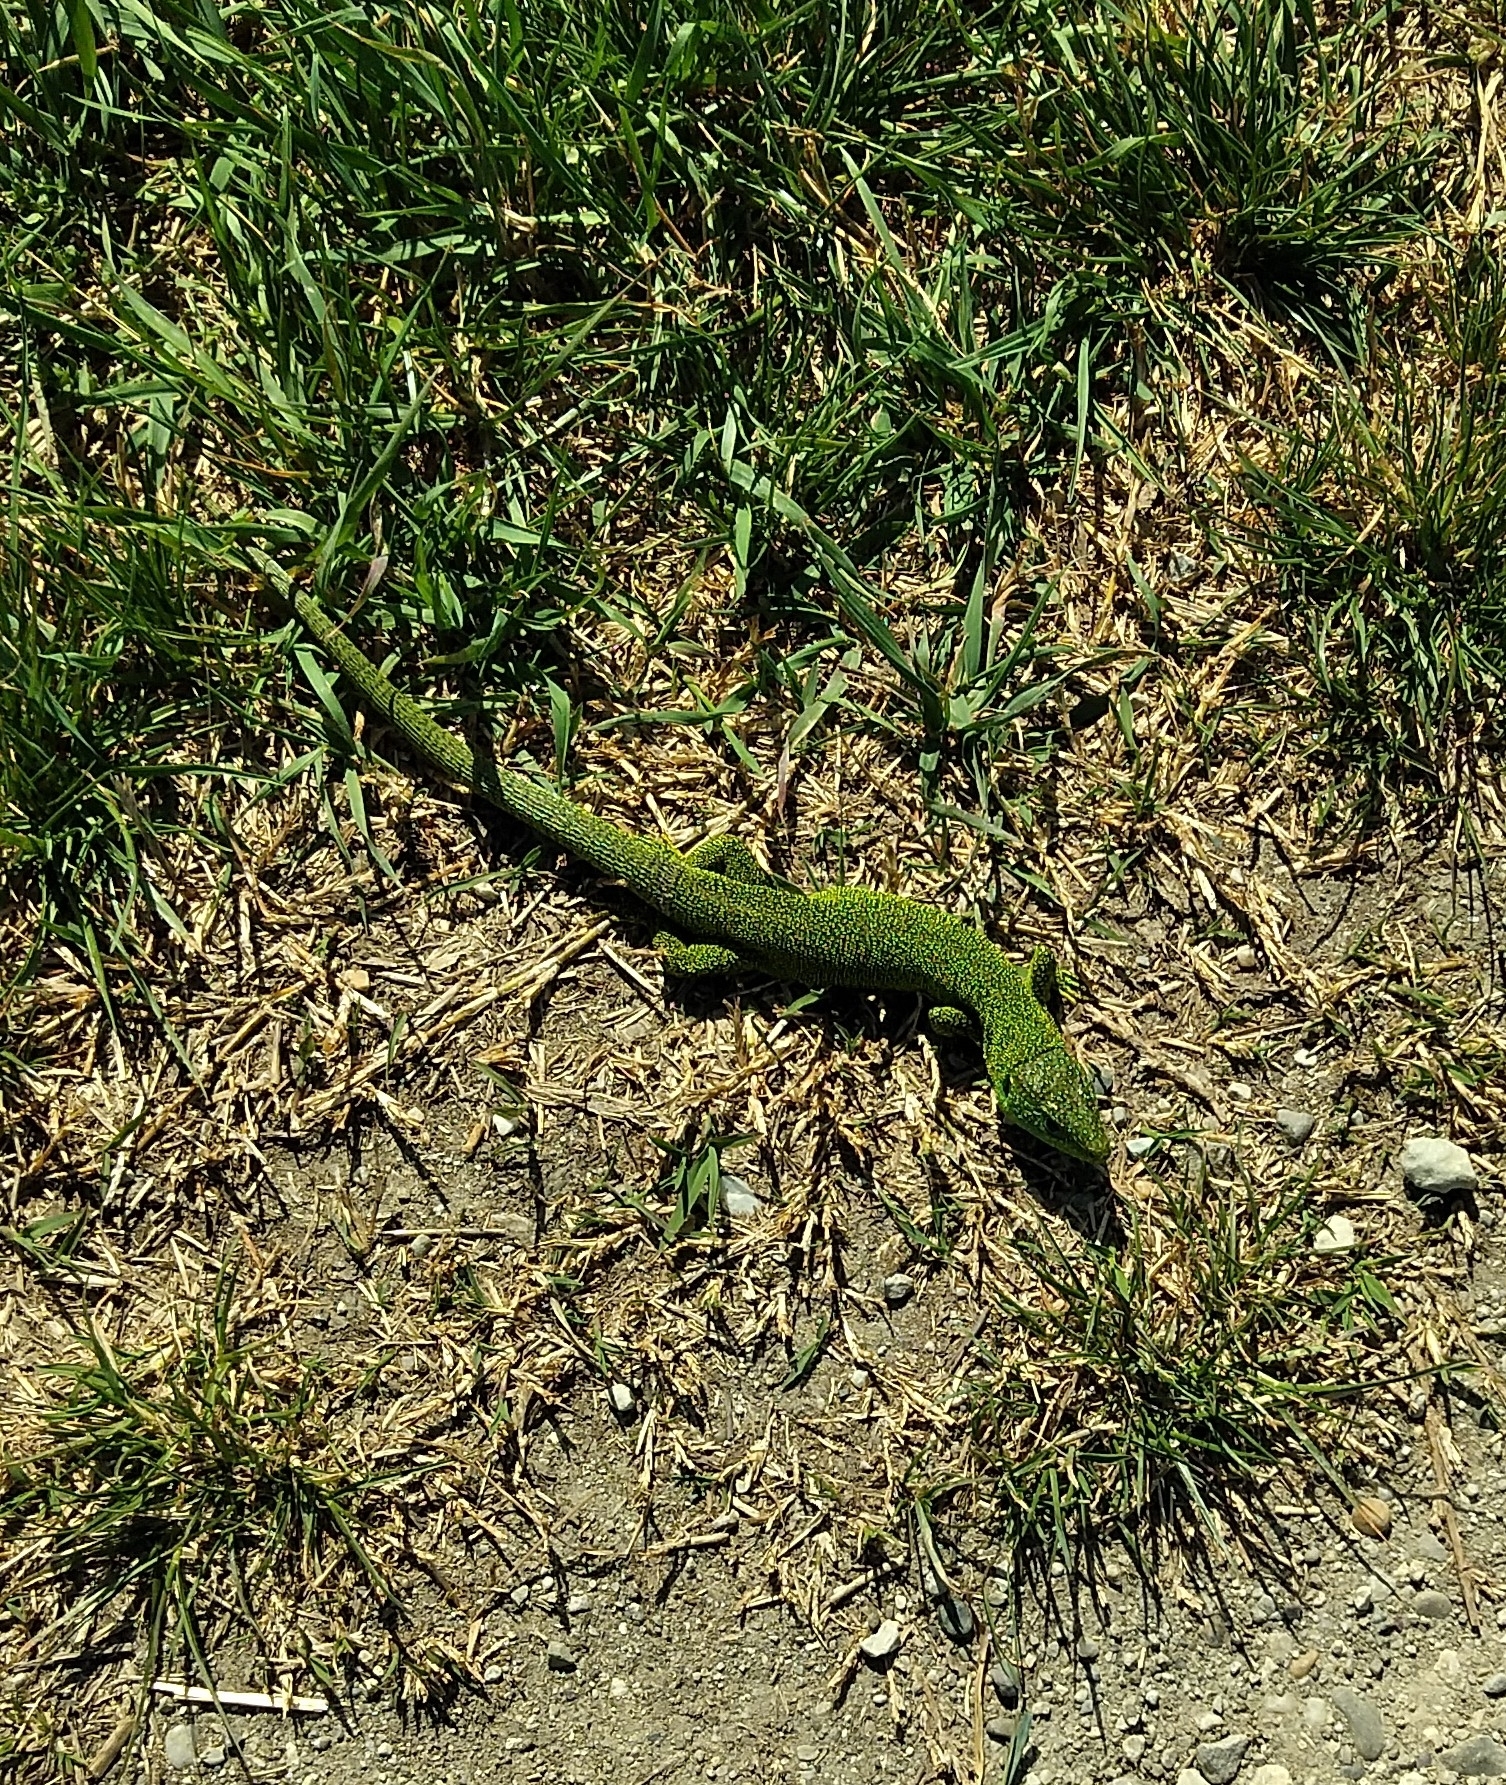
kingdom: Animalia
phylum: Chordata
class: Squamata
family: Lacertidae
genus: Lacerta
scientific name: Lacerta bilineata
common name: Western green lizard
